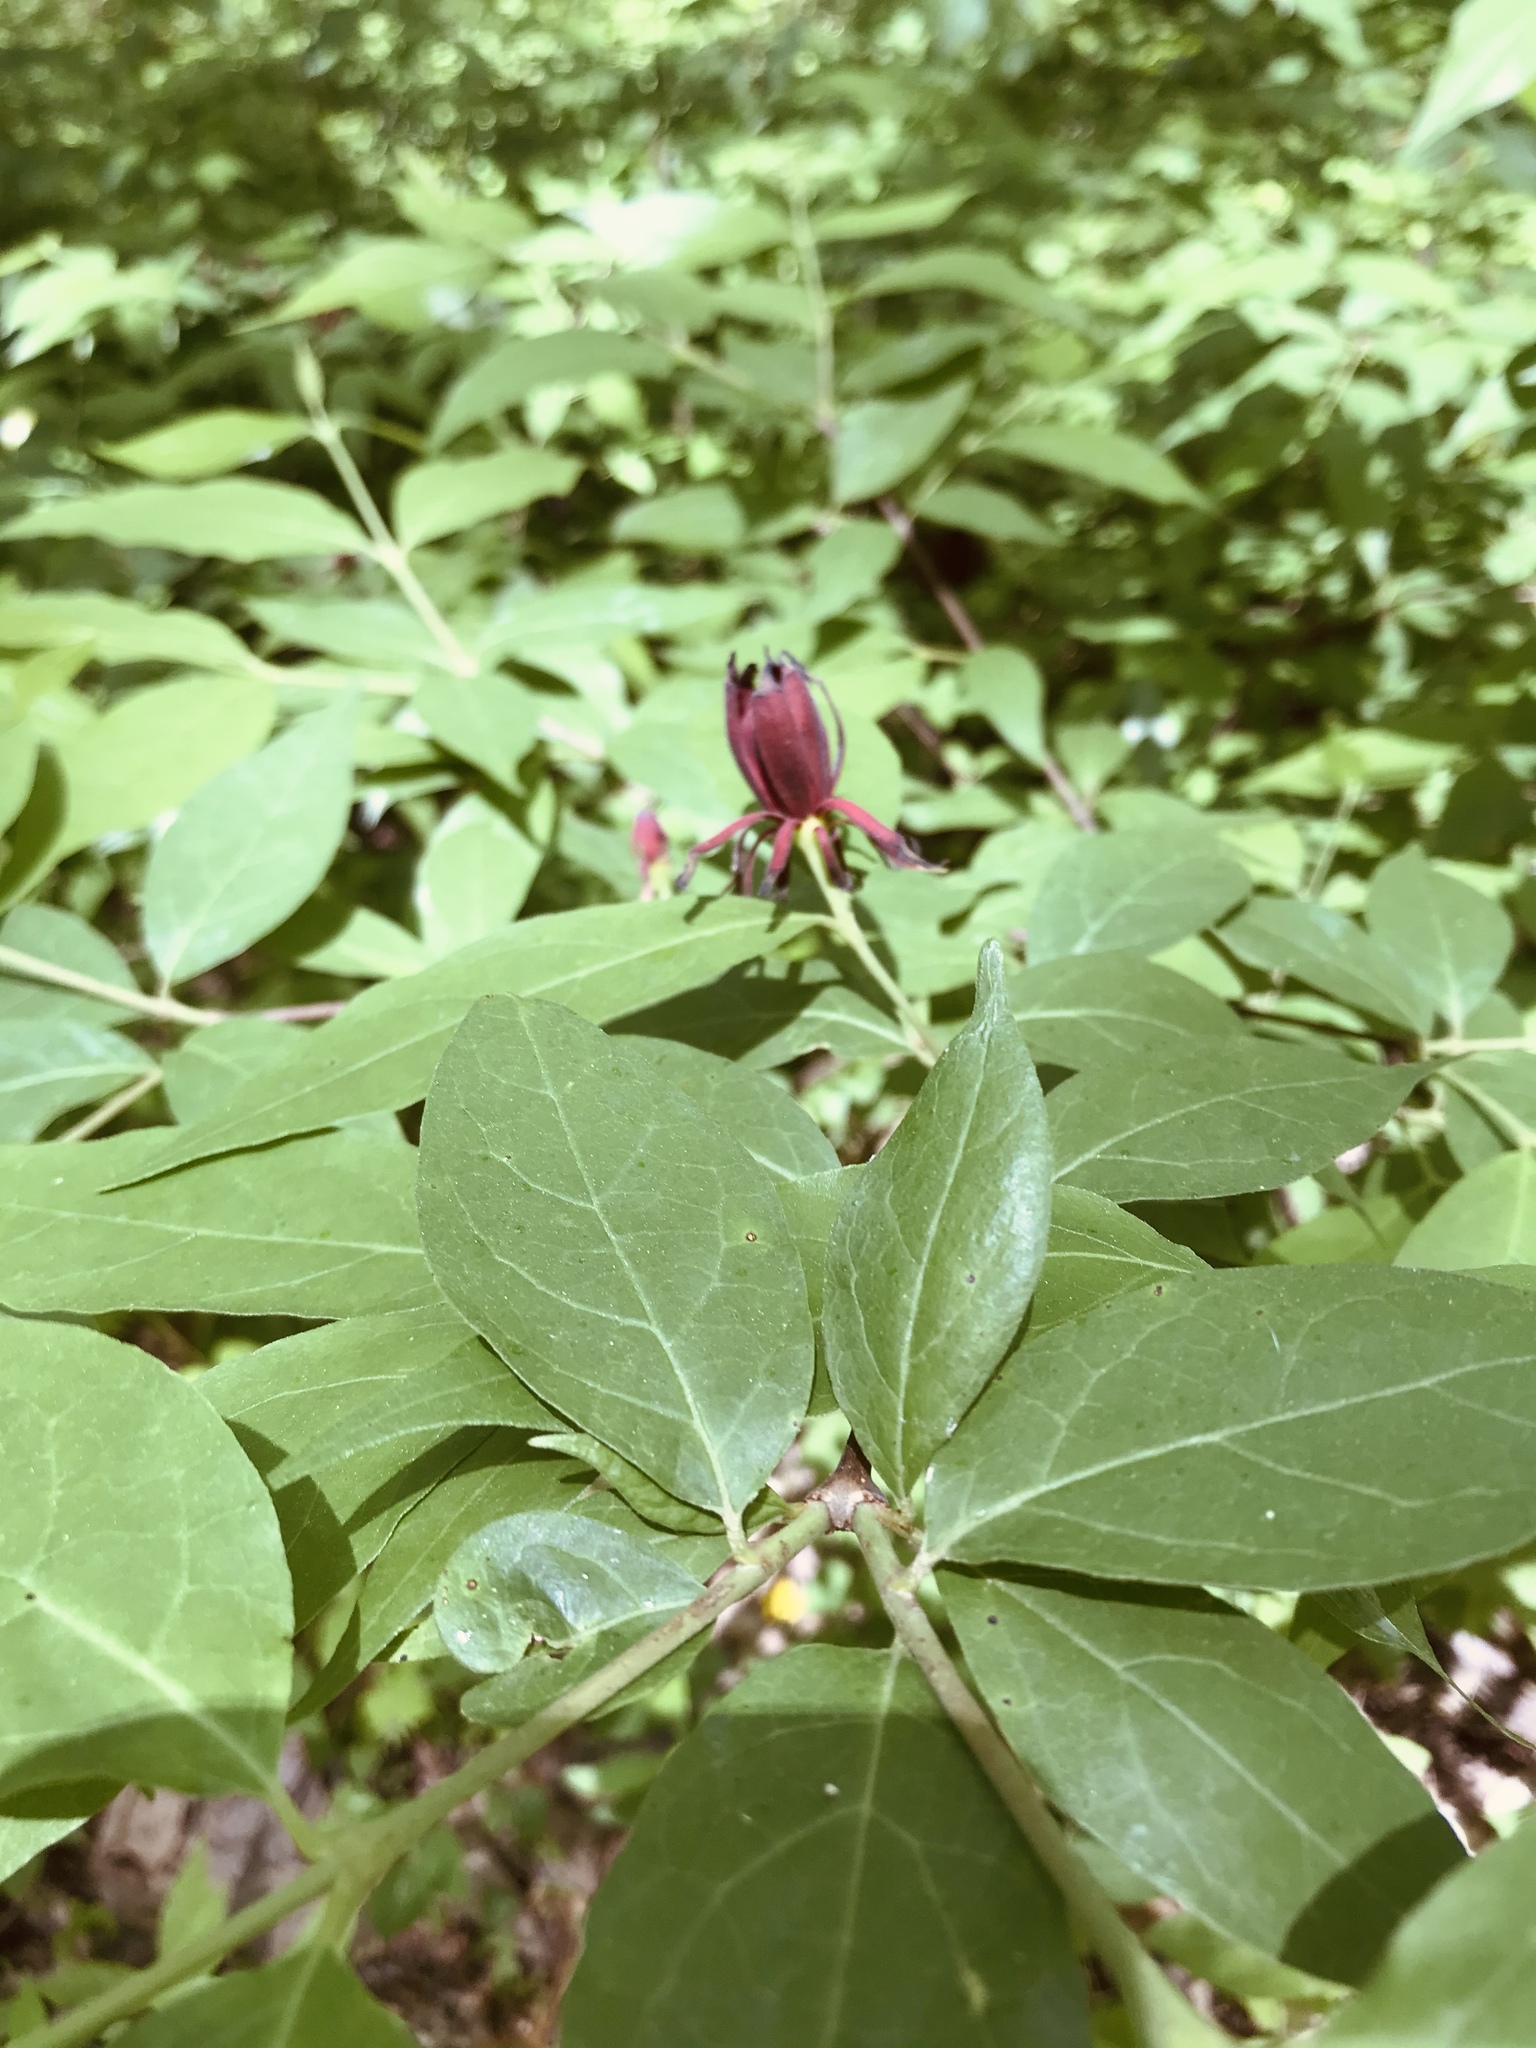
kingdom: Plantae
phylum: Tracheophyta
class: Magnoliopsida
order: Laurales
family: Calycanthaceae
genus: Calycanthus
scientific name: Calycanthus floridus
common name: Carolina-allspice
